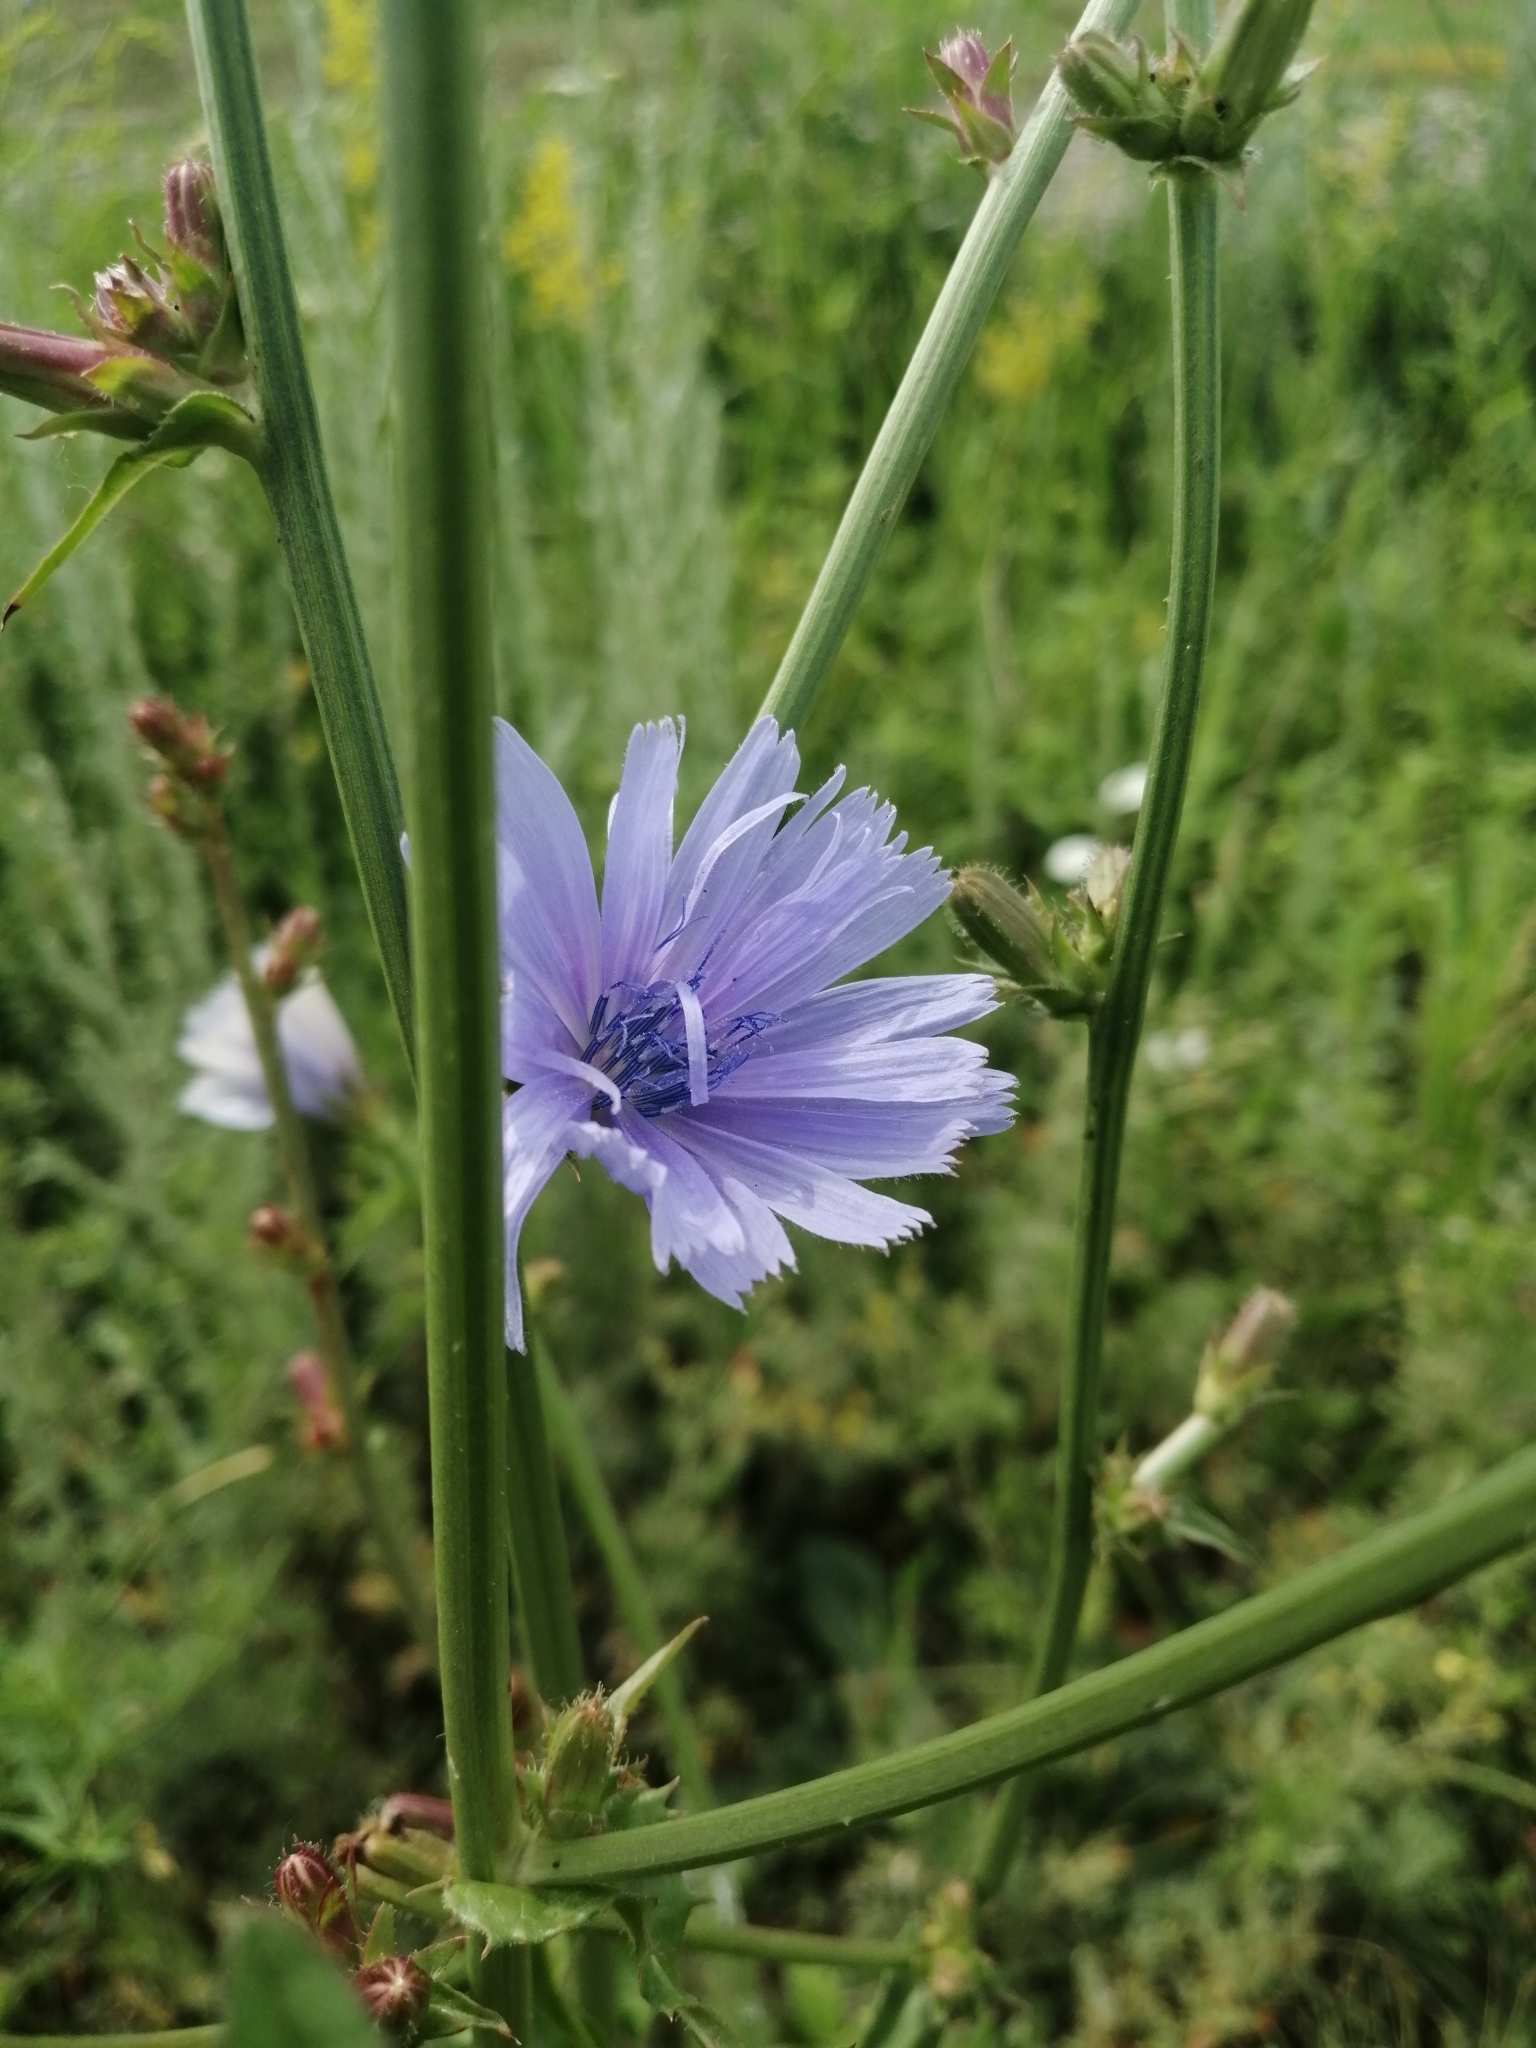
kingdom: Plantae
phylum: Tracheophyta
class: Magnoliopsida
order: Asterales
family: Asteraceae
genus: Cichorium
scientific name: Cichorium intybus
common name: Chicory
